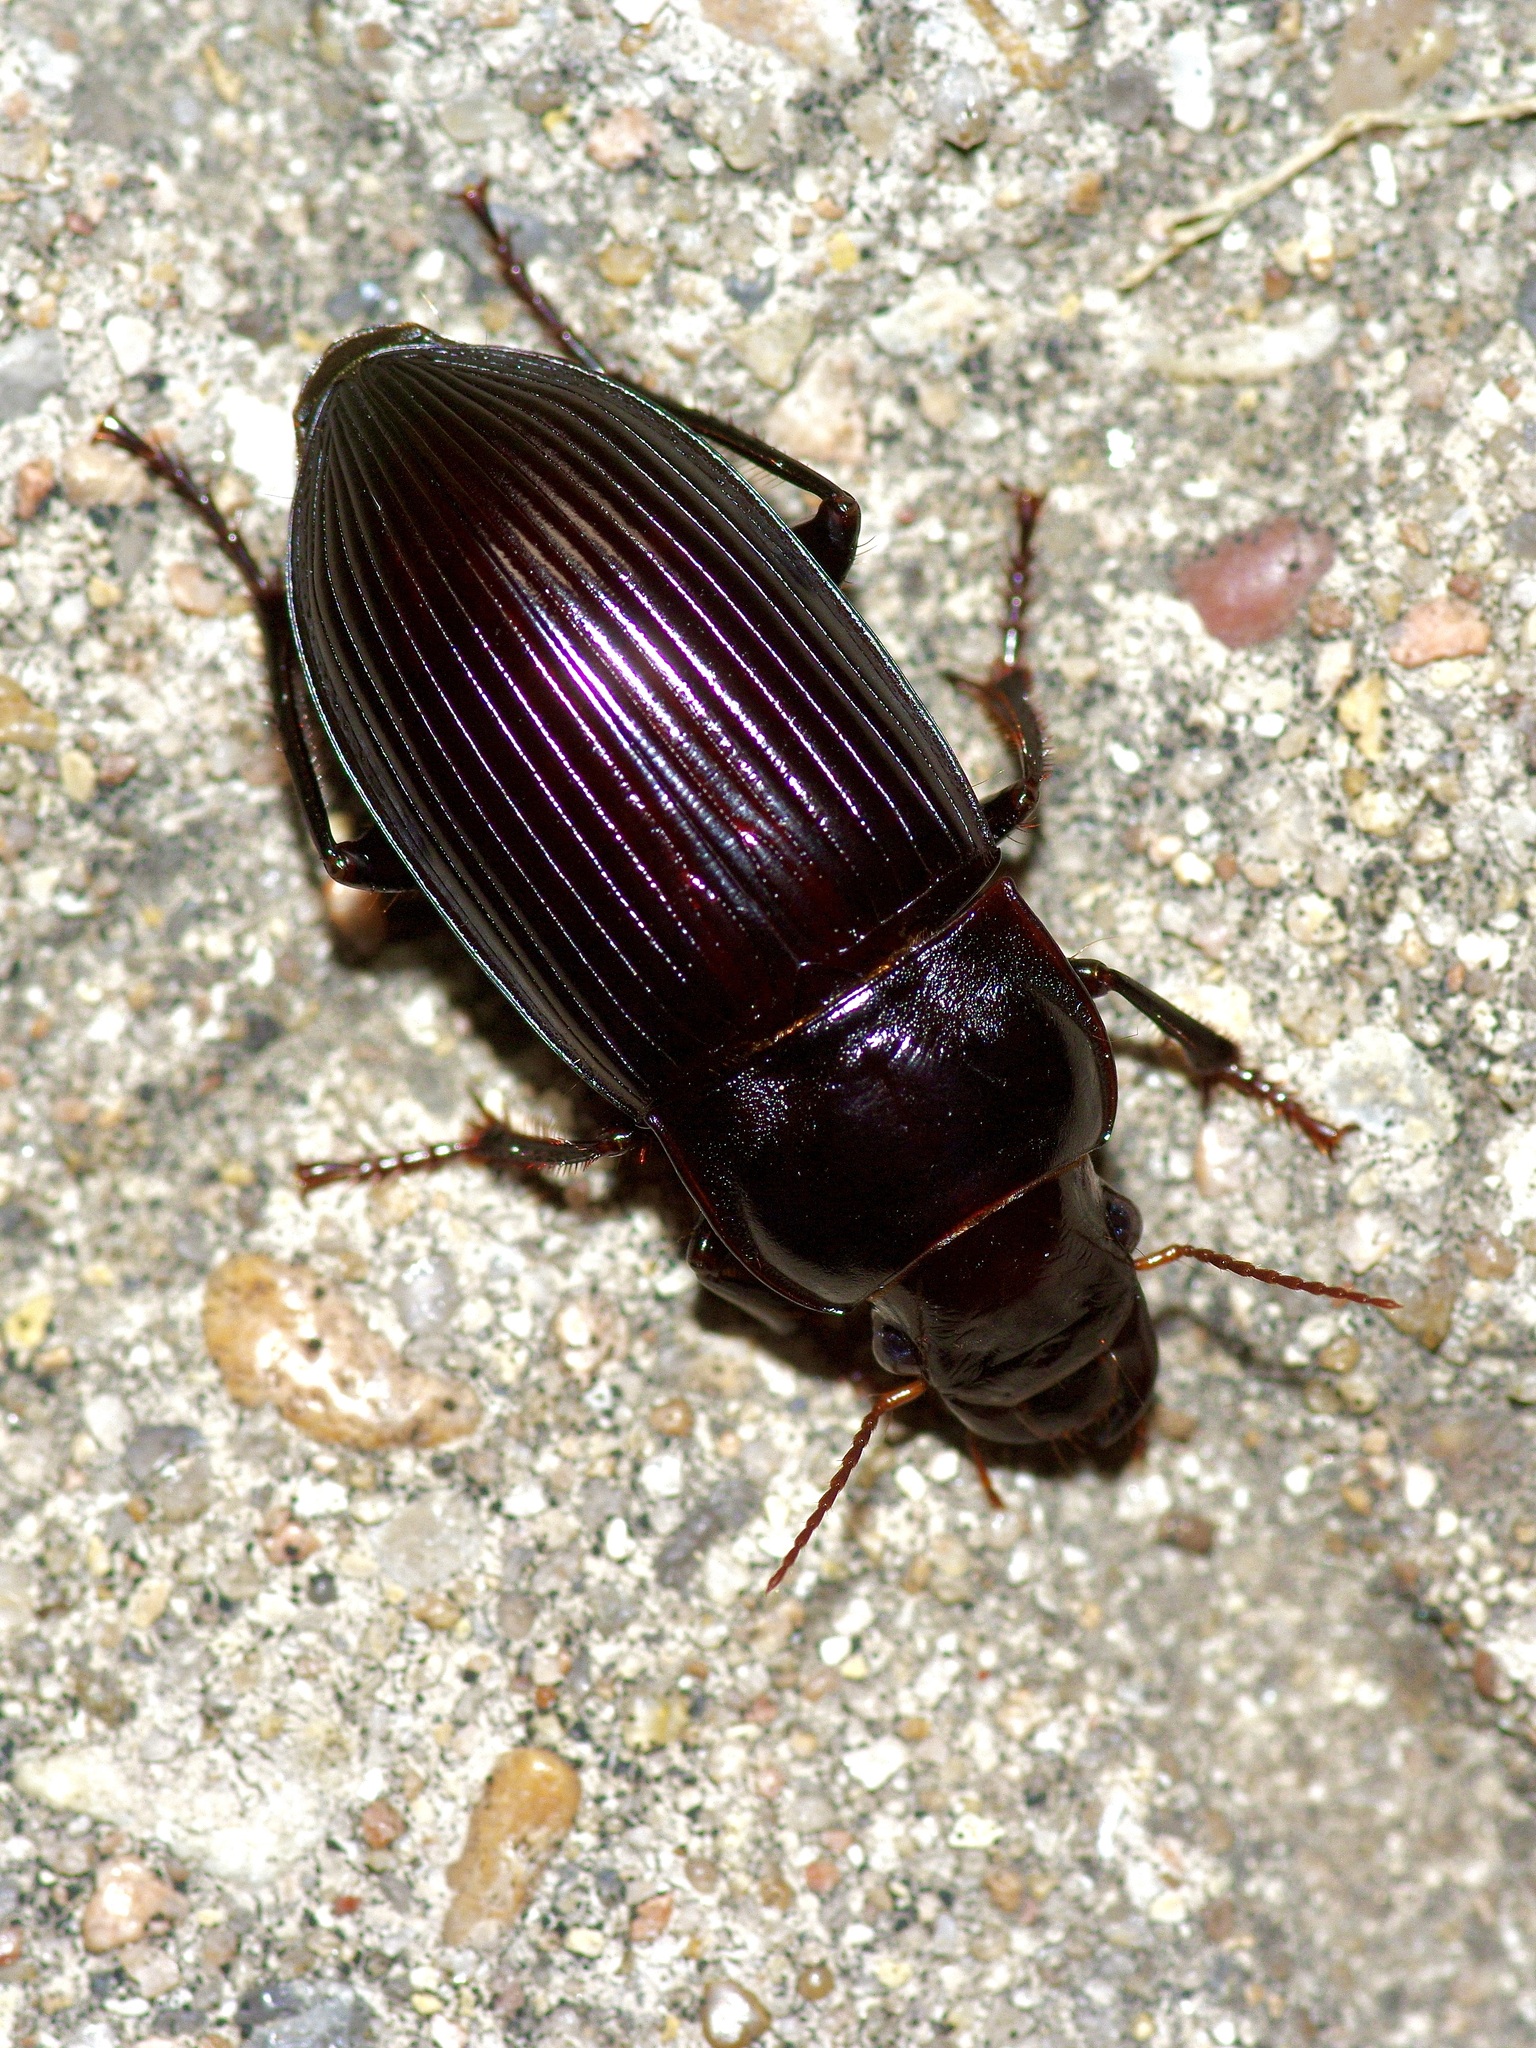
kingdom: Animalia
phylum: Arthropoda
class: Insecta
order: Coleoptera
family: Carabidae
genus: Harpalus
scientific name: Harpalus caliginosus
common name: Murky ground beetle
